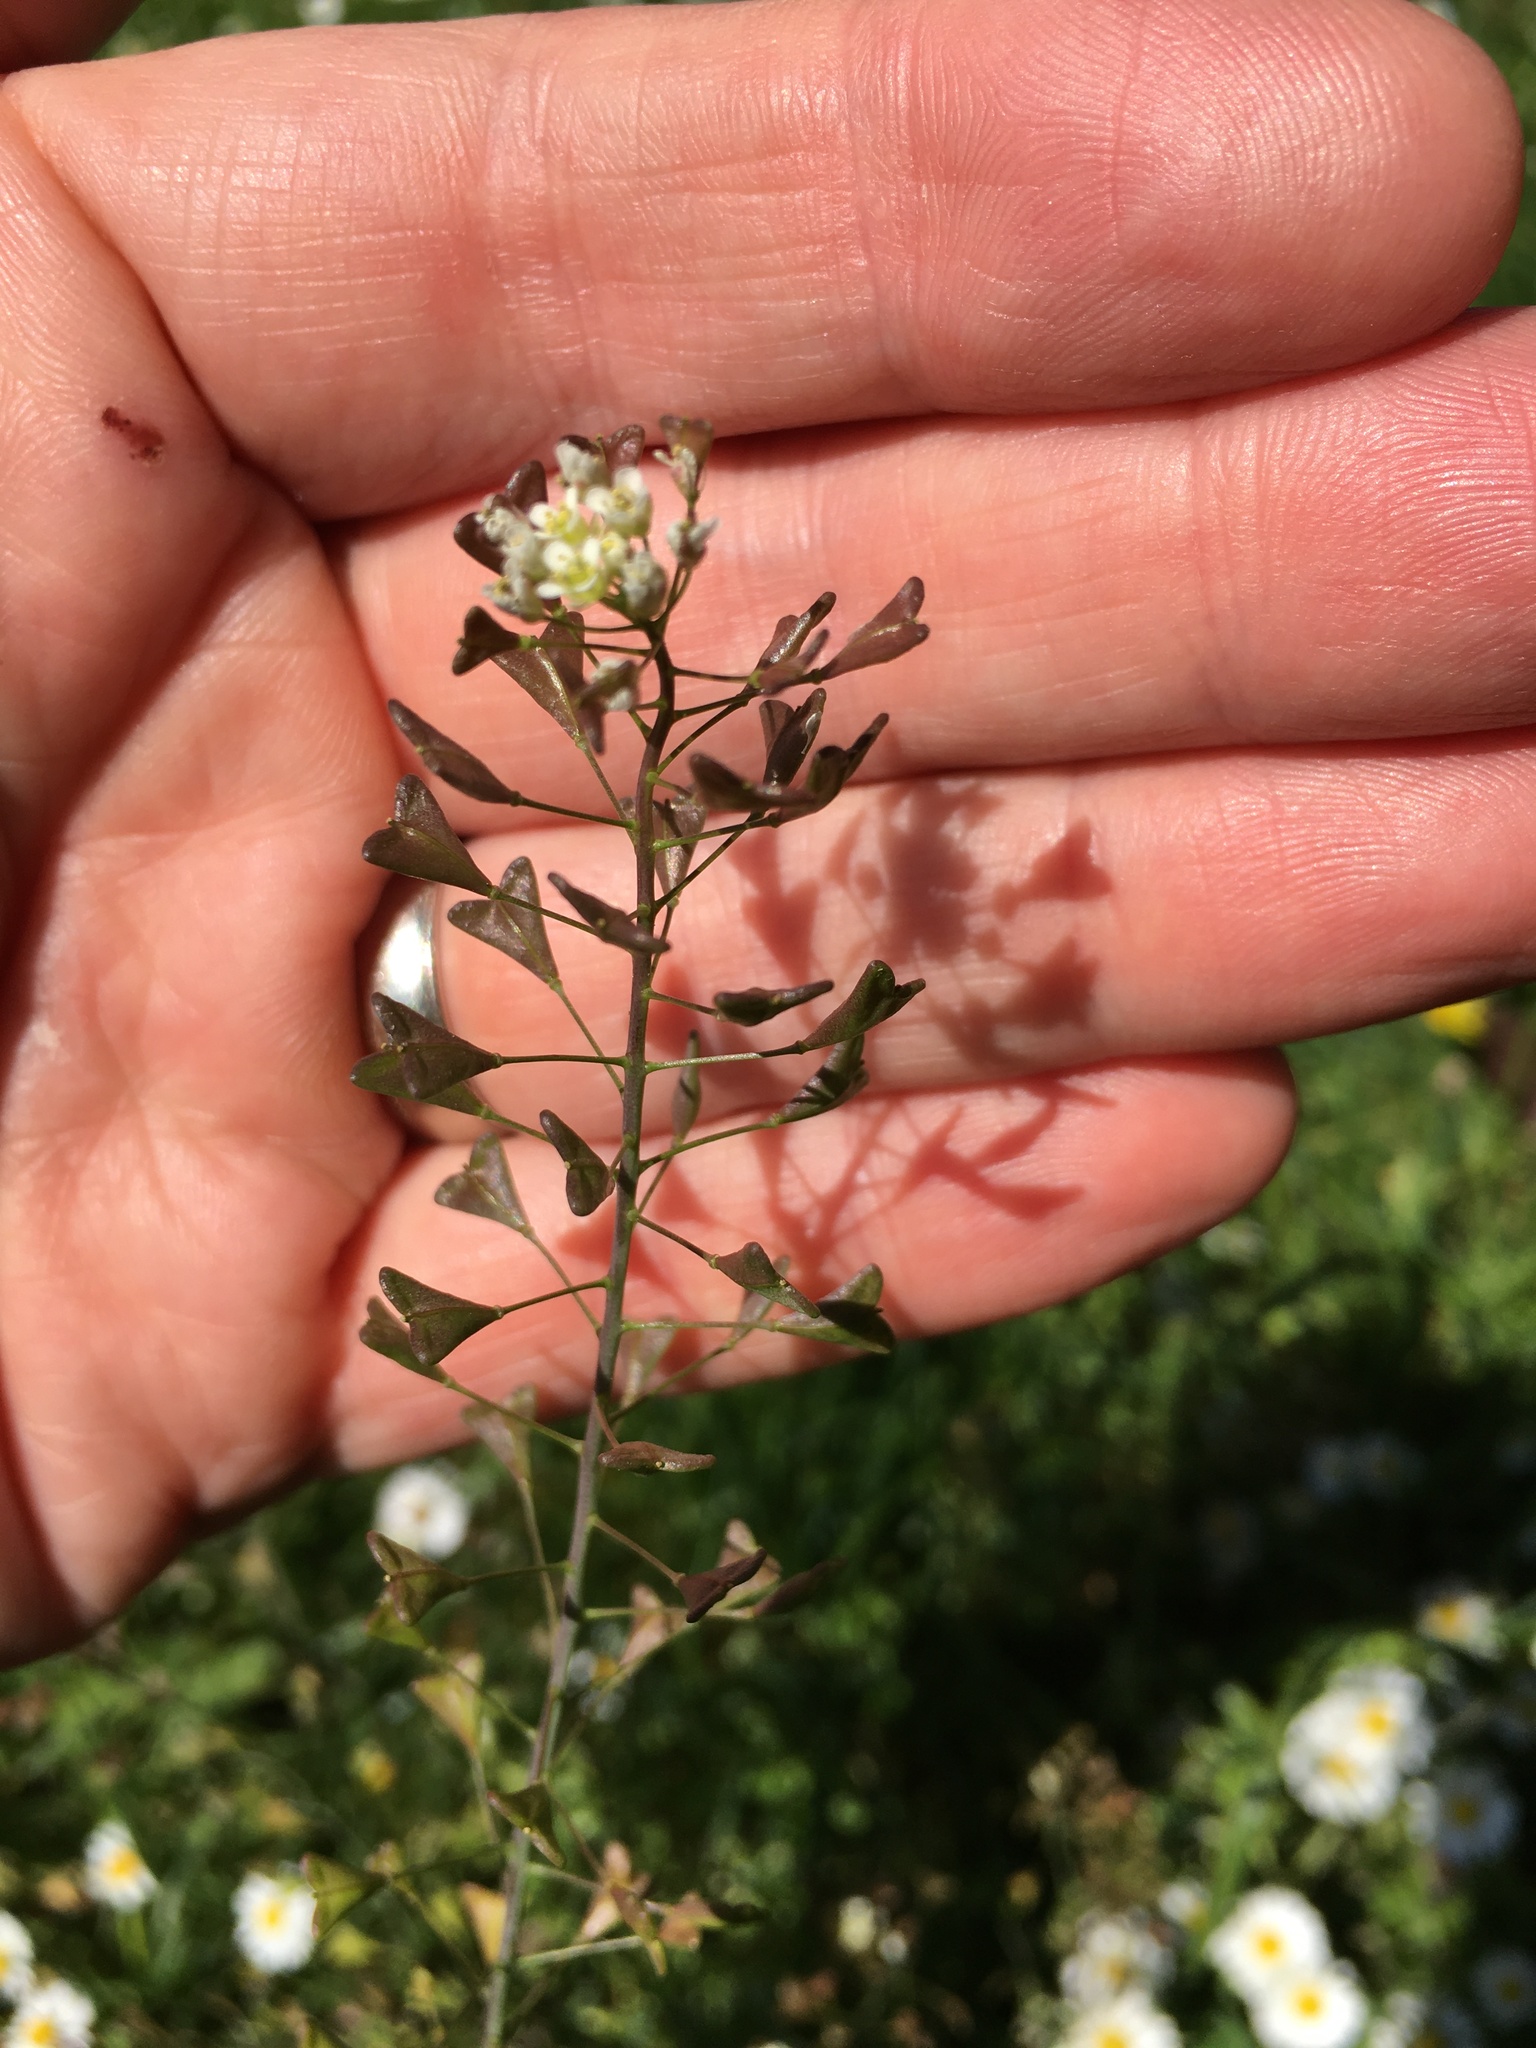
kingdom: Plantae
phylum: Tracheophyta
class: Magnoliopsida
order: Brassicales
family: Brassicaceae
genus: Capsella
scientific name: Capsella bursa-pastoris
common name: Shepherd's purse
